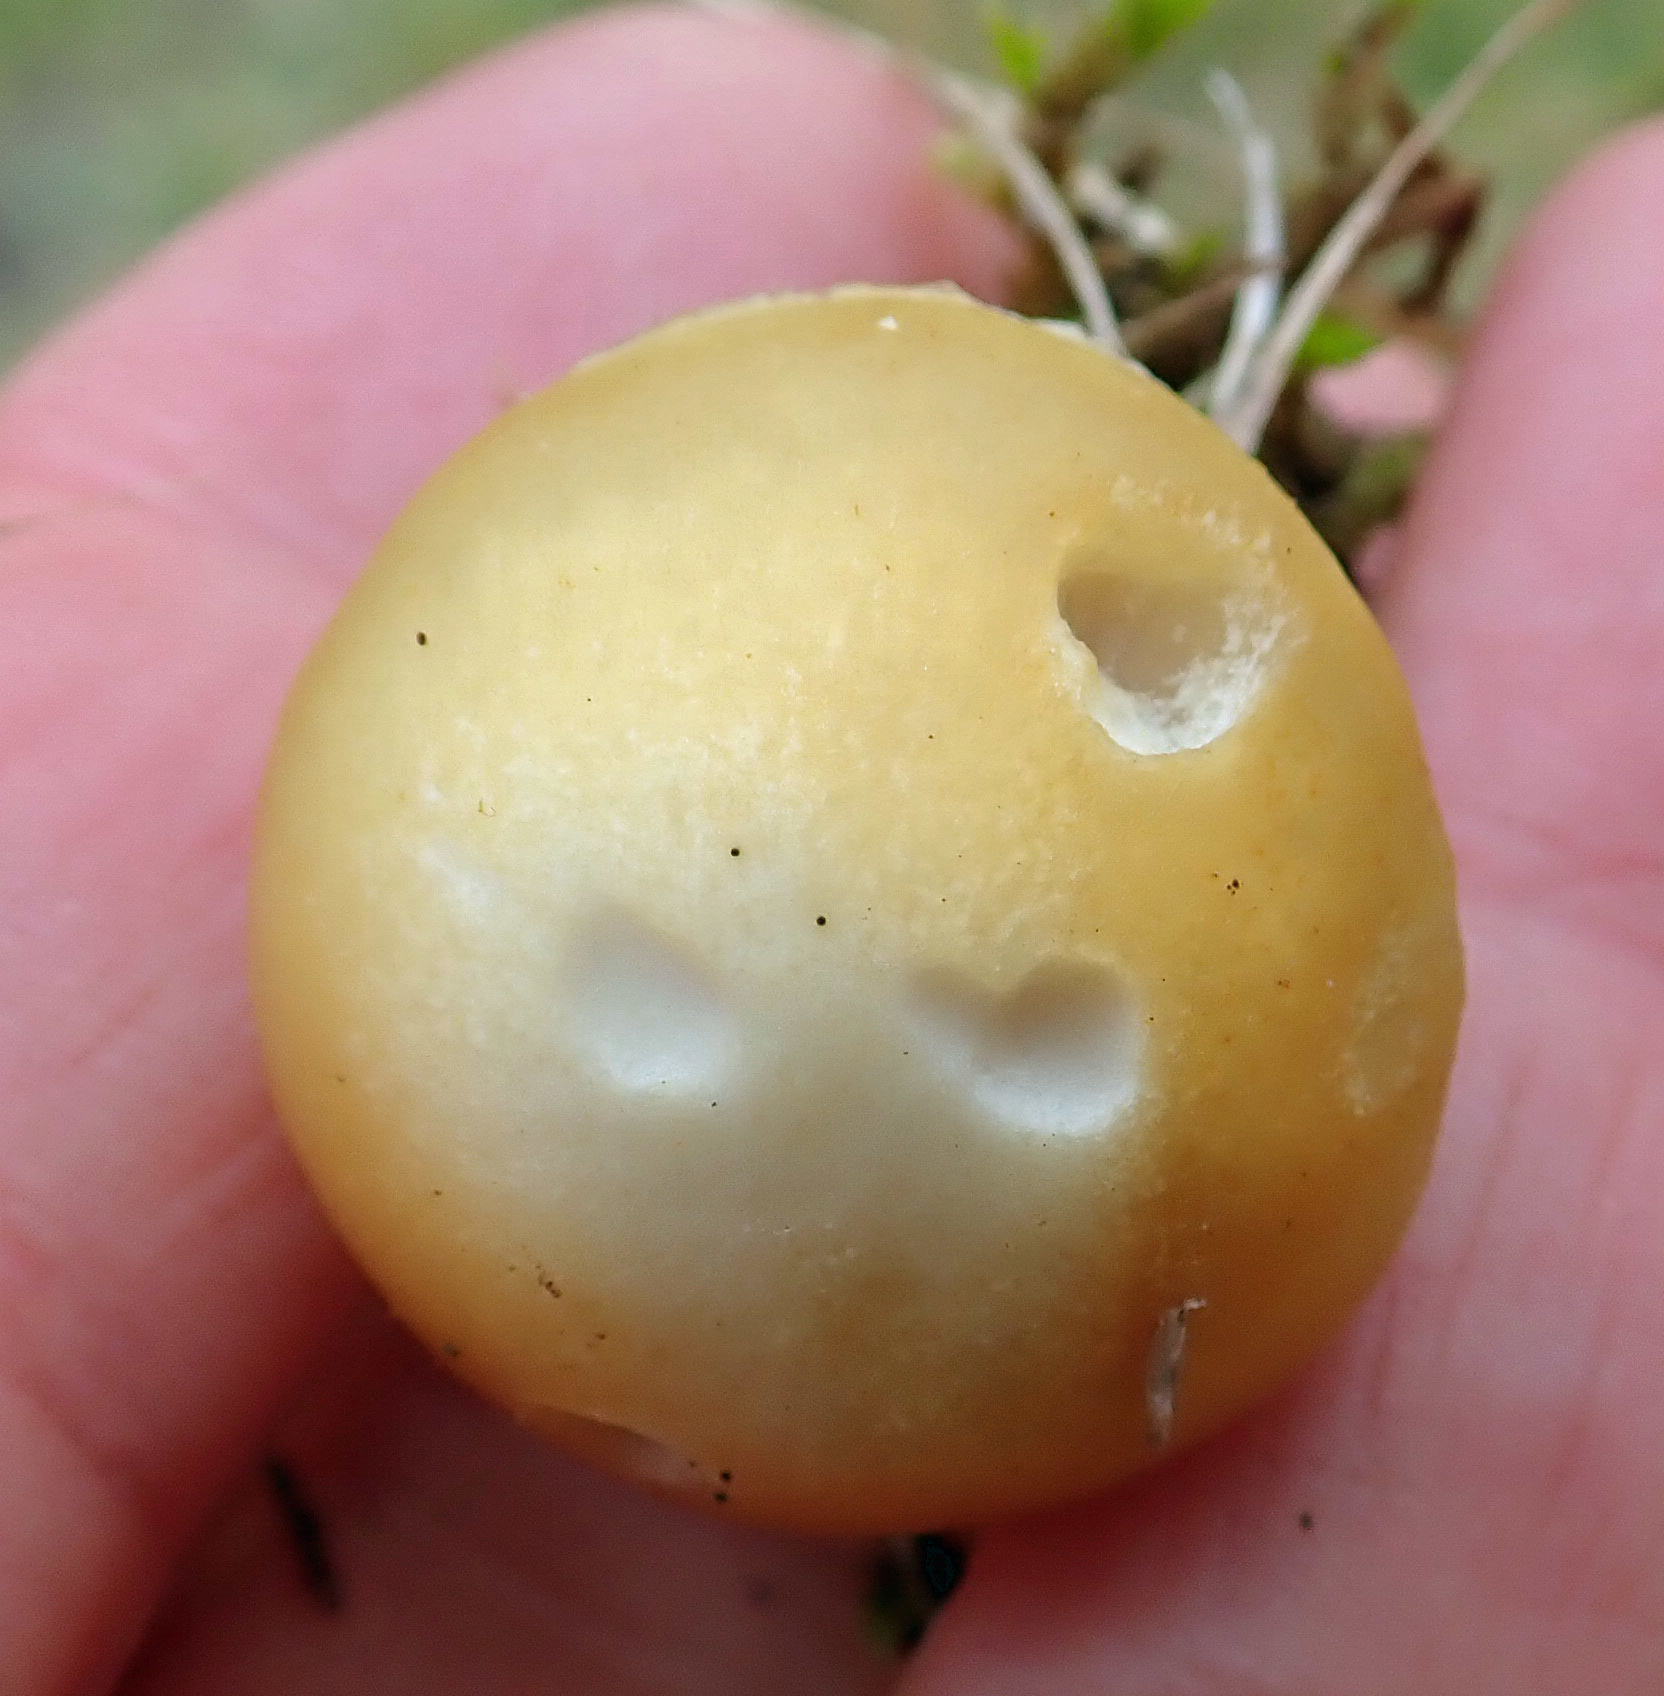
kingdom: Fungi
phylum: Basidiomycota
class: Agaricomycetes
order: Agaricales
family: Hymenogastraceae
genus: Psilocybe
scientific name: Psilocybe coronilla
